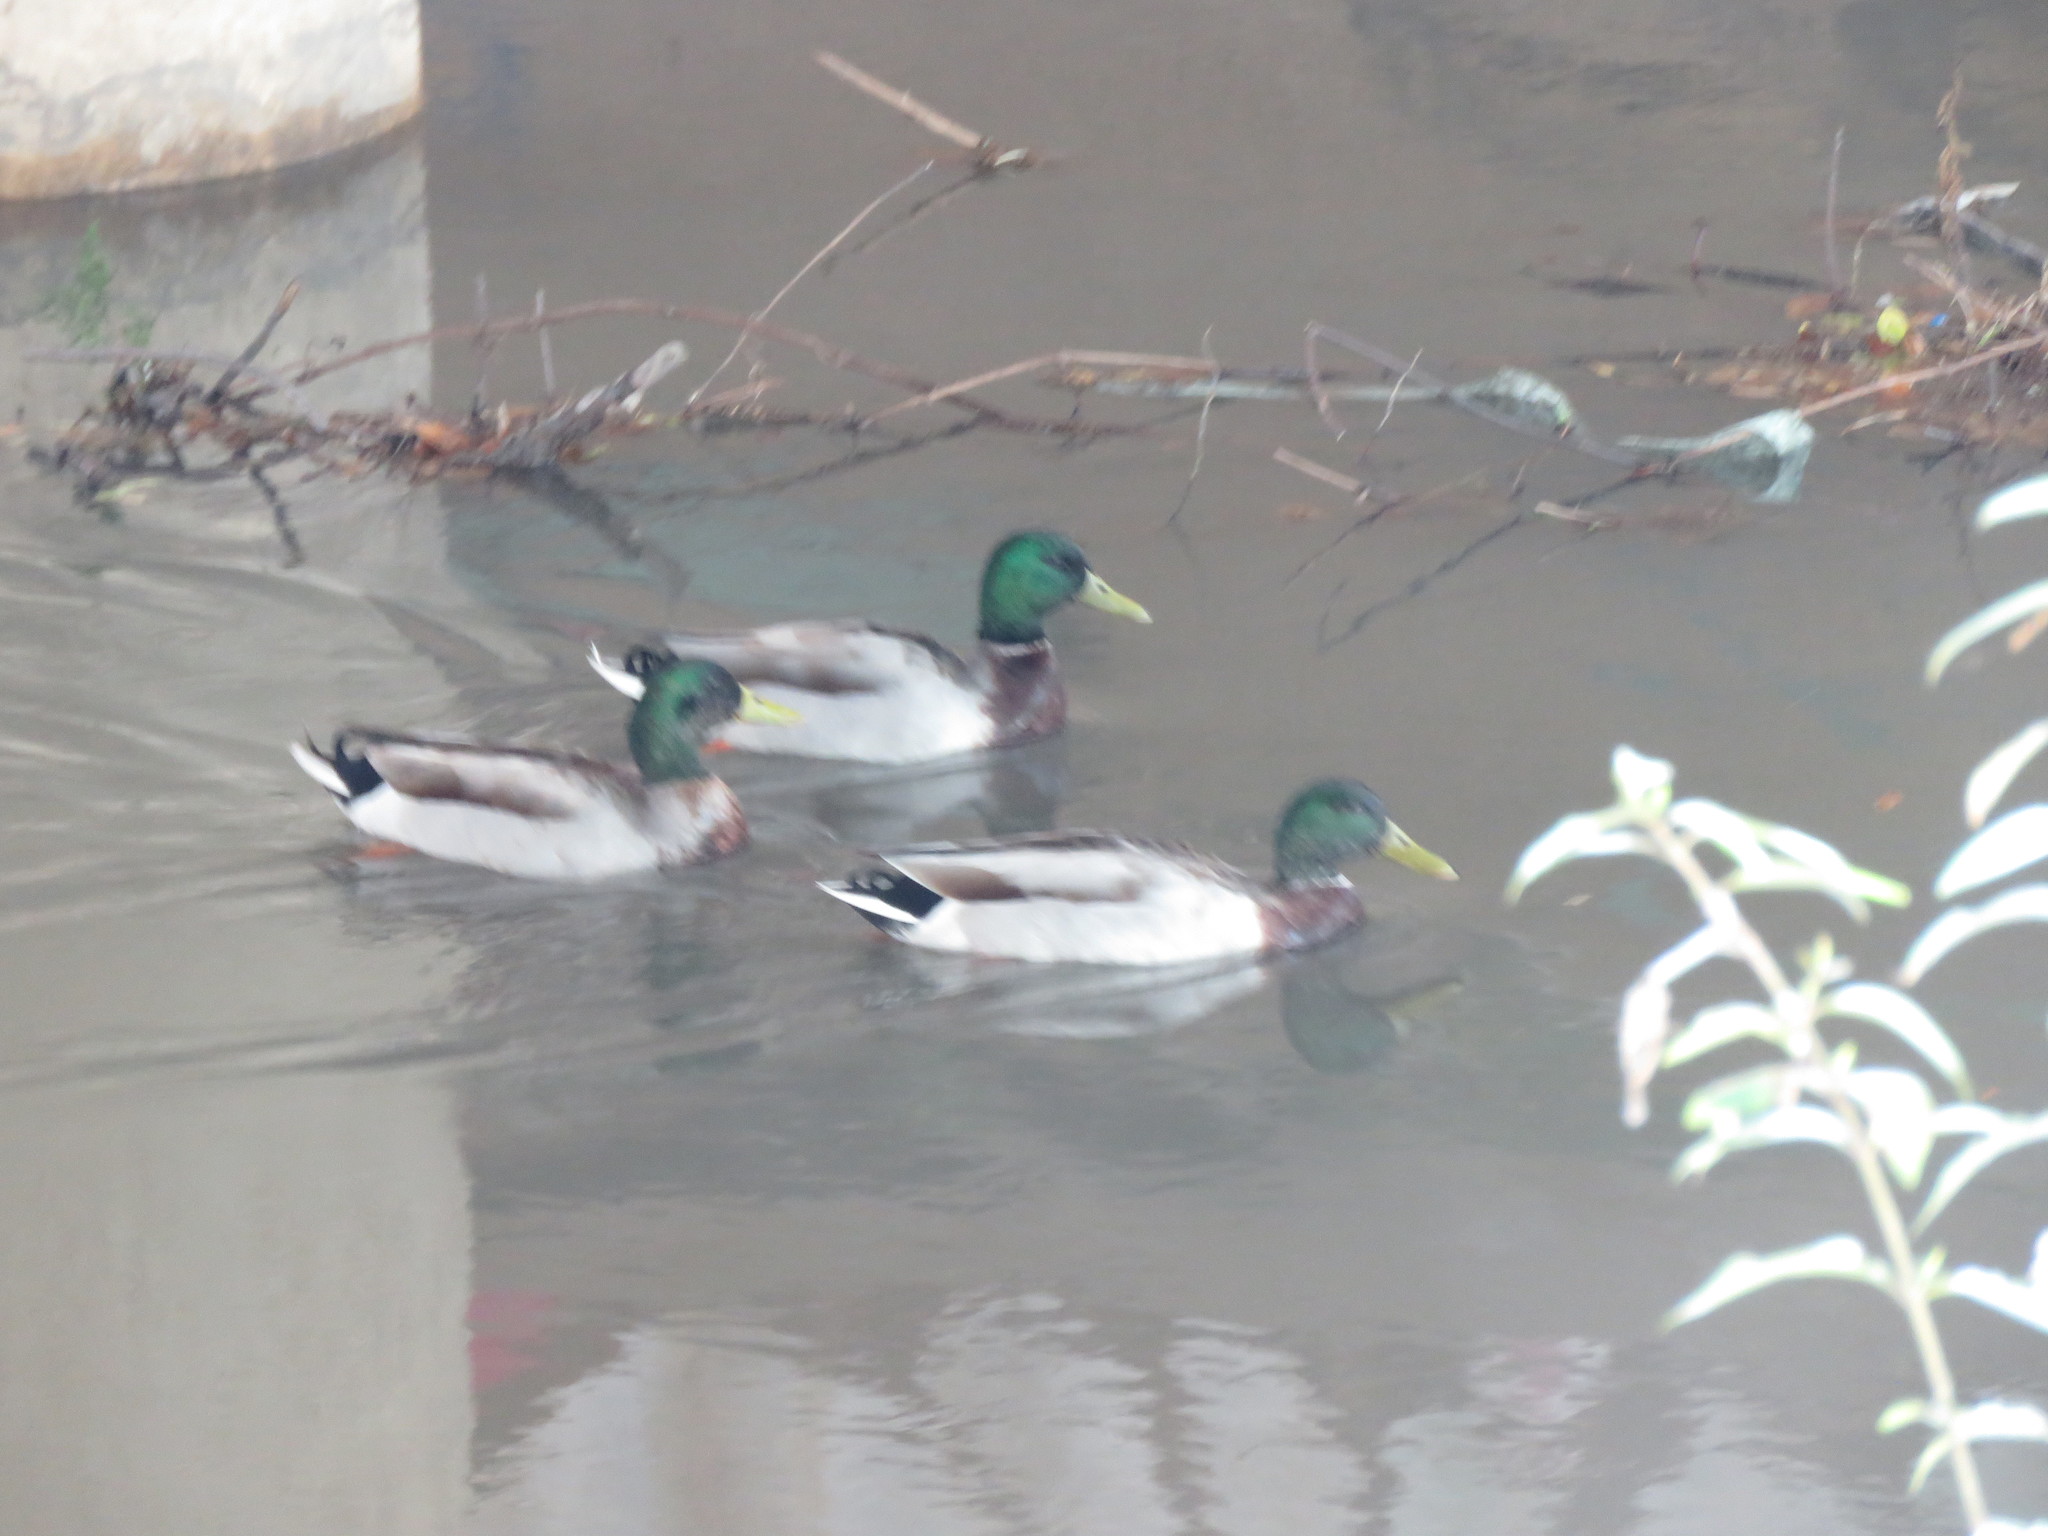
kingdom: Animalia
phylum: Chordata
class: Aves
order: Anseriformes
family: Anatidae
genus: Anas
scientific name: Anas platyrhynchos
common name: Mallard
